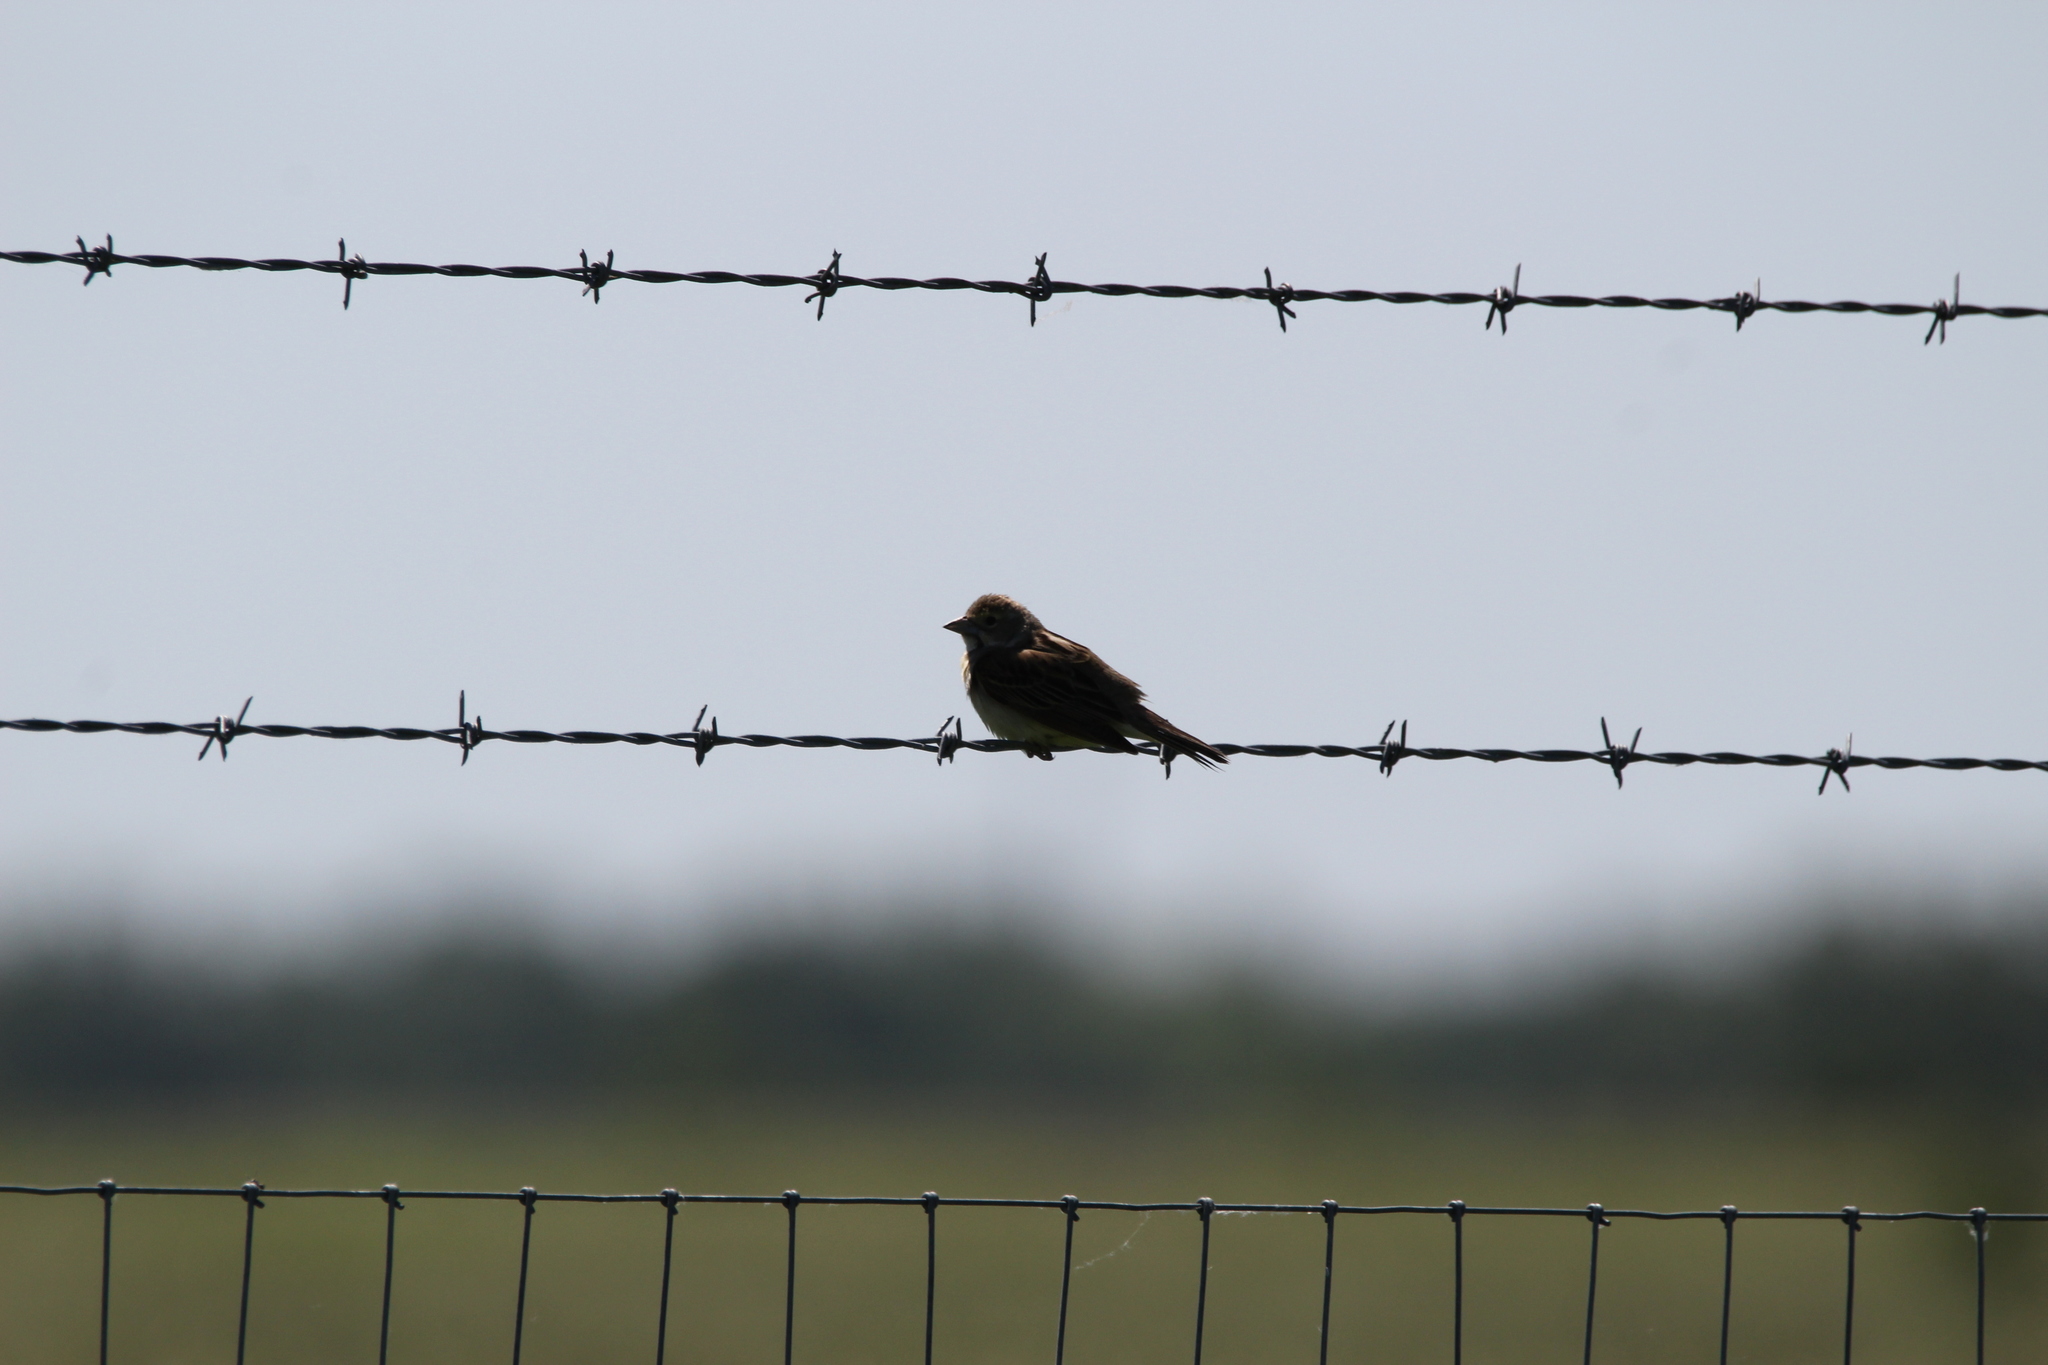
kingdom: Animalia
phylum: Chordata
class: Aves
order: Passeriformes
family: Cardinalidae
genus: Spiza
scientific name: Spiza americana
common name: Dickcissel
